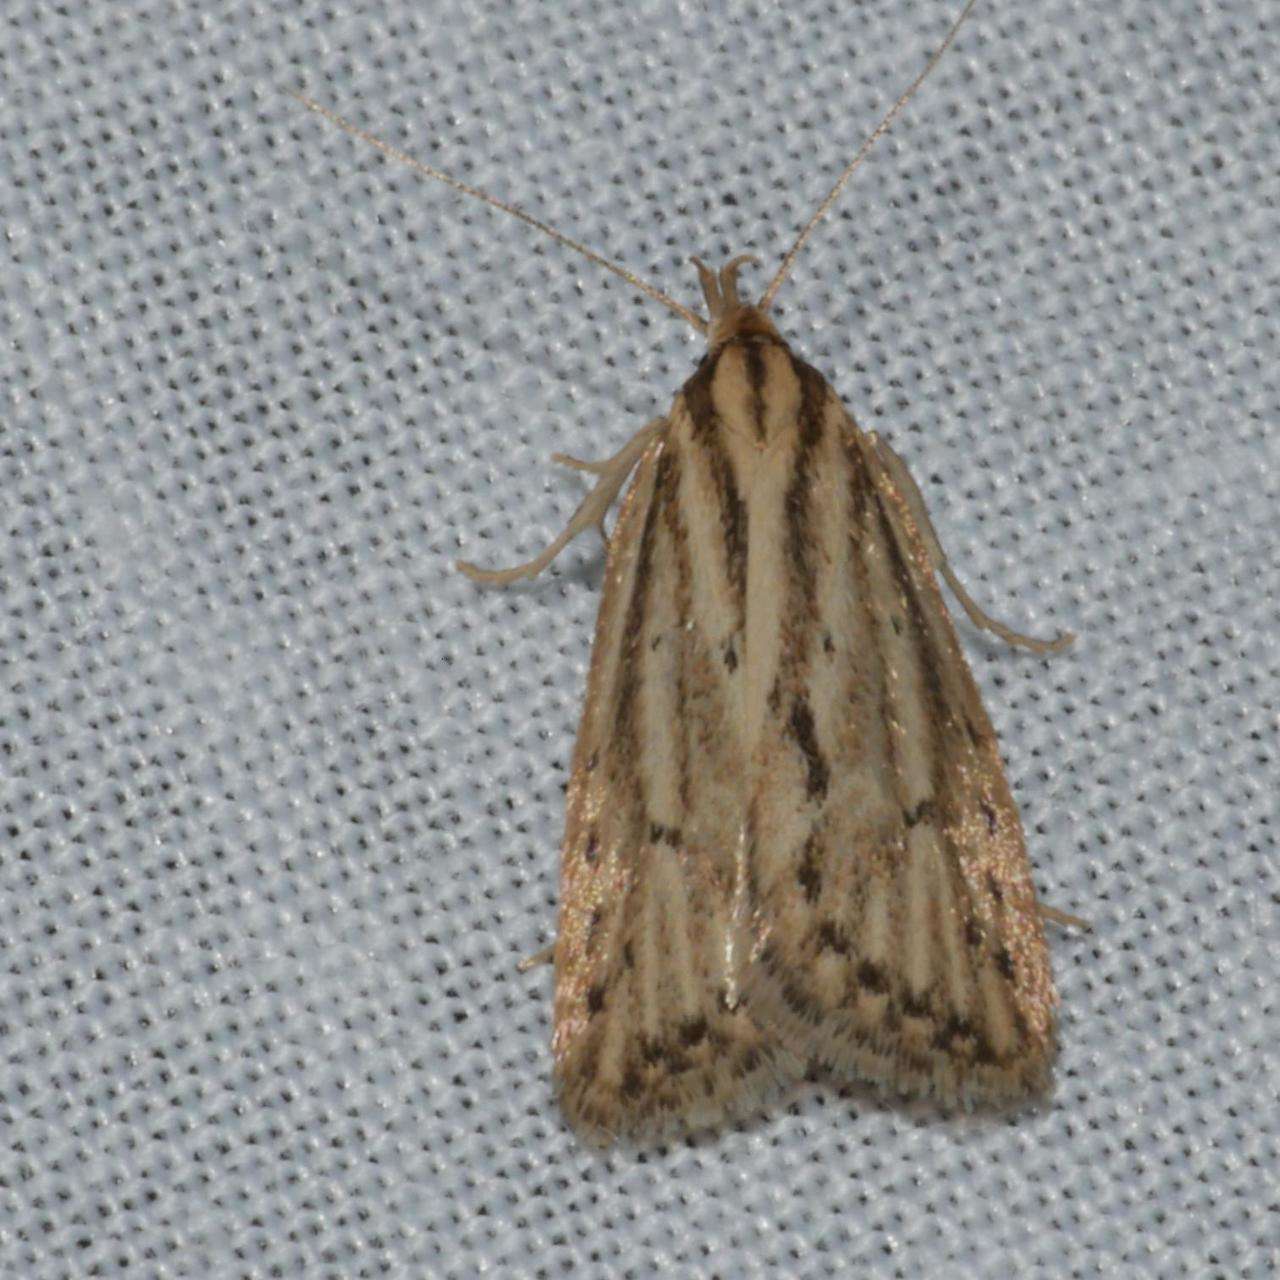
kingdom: Animalia
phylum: Arthropoda
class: Insecta
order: Lepidoptera
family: Oecophoridae
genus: Eulechria
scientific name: Eulechria melesella
